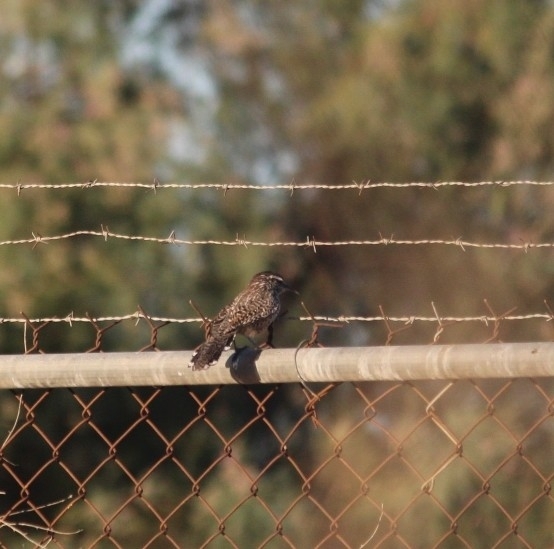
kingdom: Animalia
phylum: Chordata
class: Aves
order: Passeriformes
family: Troglodytidae
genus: Campylorhynchus
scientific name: Campylorhynchus brunneicapillus
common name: Cactus wren
